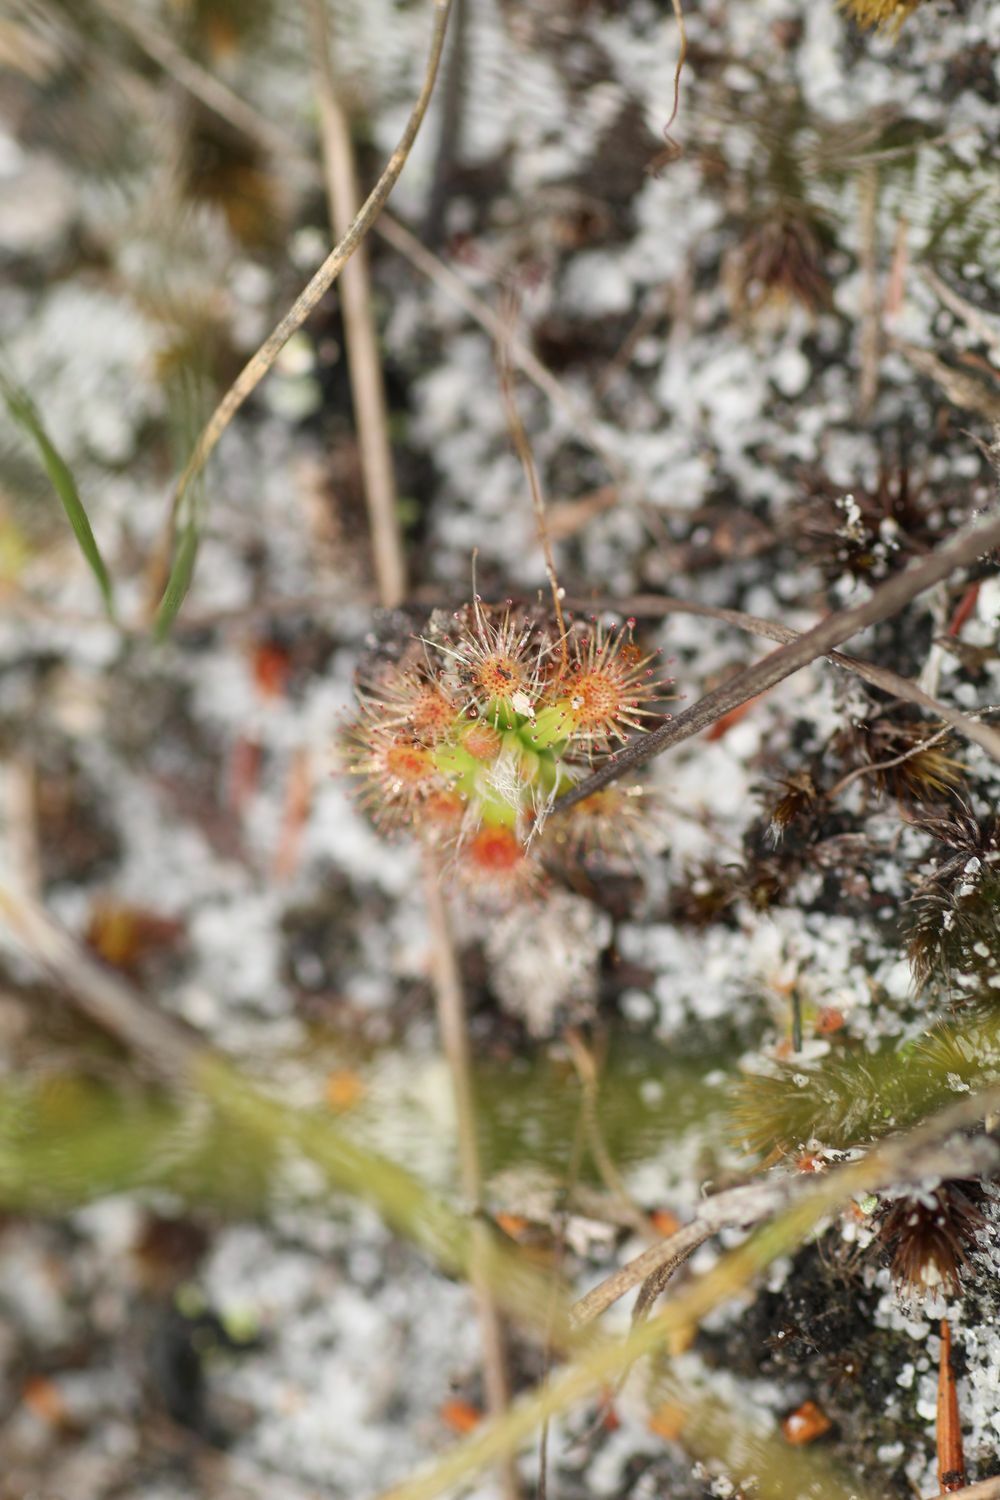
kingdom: Plantae
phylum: Tracheophyta
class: Magnoliopsida
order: Caryophyllales
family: Droseraceae
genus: Drosera
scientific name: Drosera pulchella
